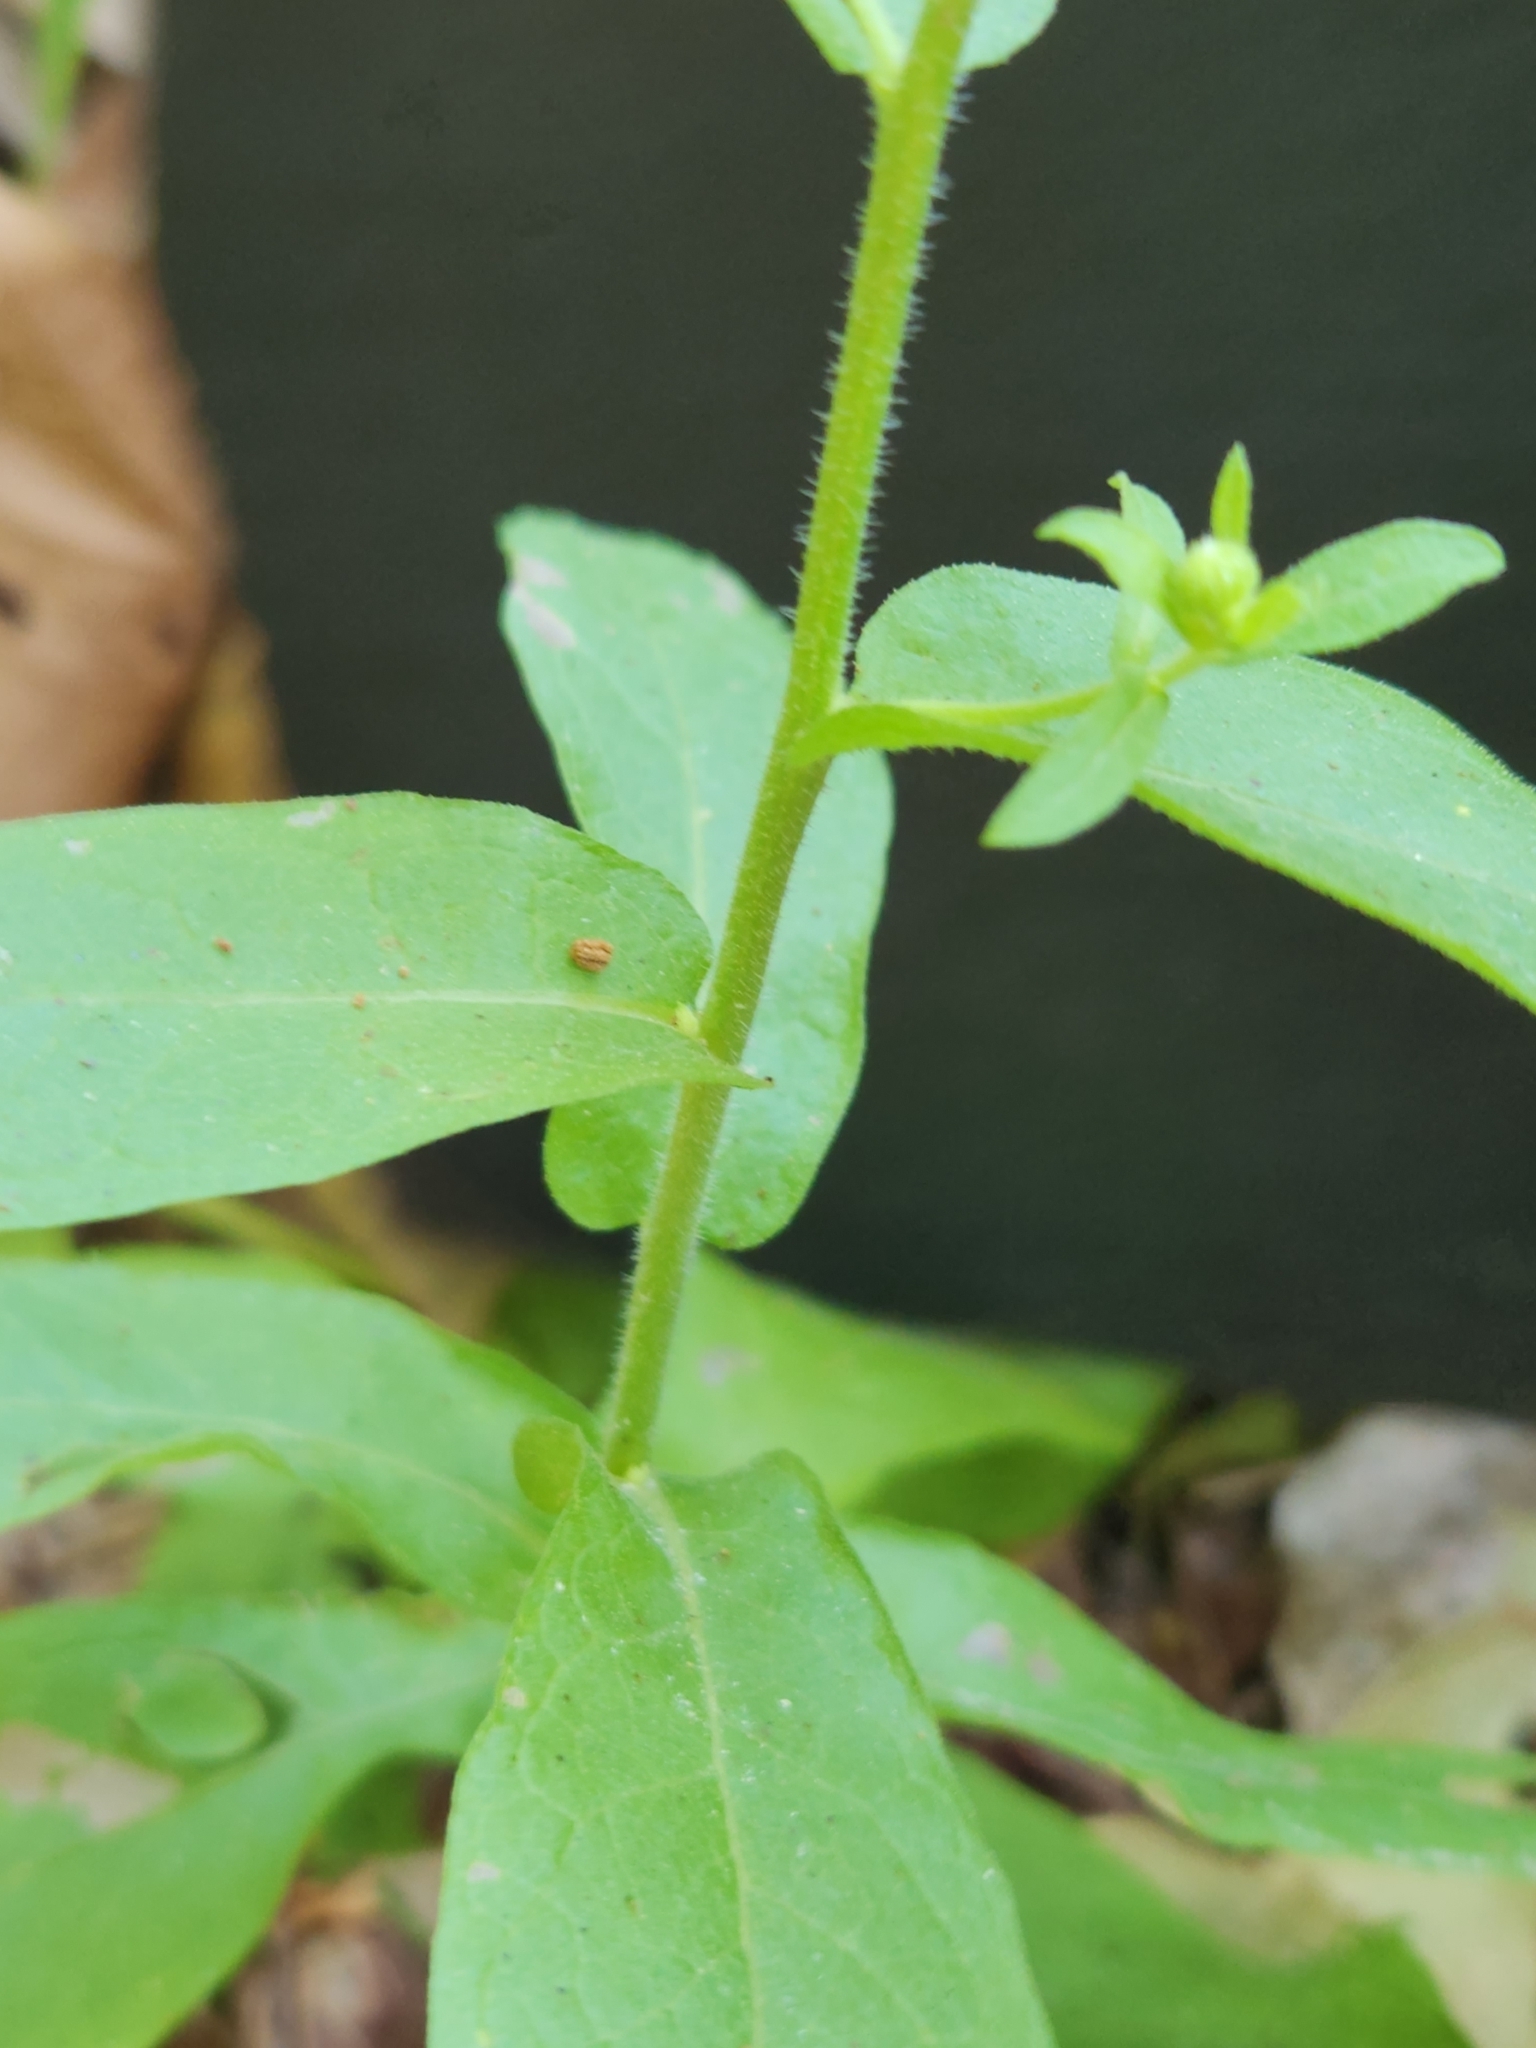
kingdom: Plantae
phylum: Tracheophyta
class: Magnoliopsida
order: Asterales
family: Asteraceae
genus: Heterotheca
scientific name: Heterotheca subaxillaris
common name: Camphorweed
